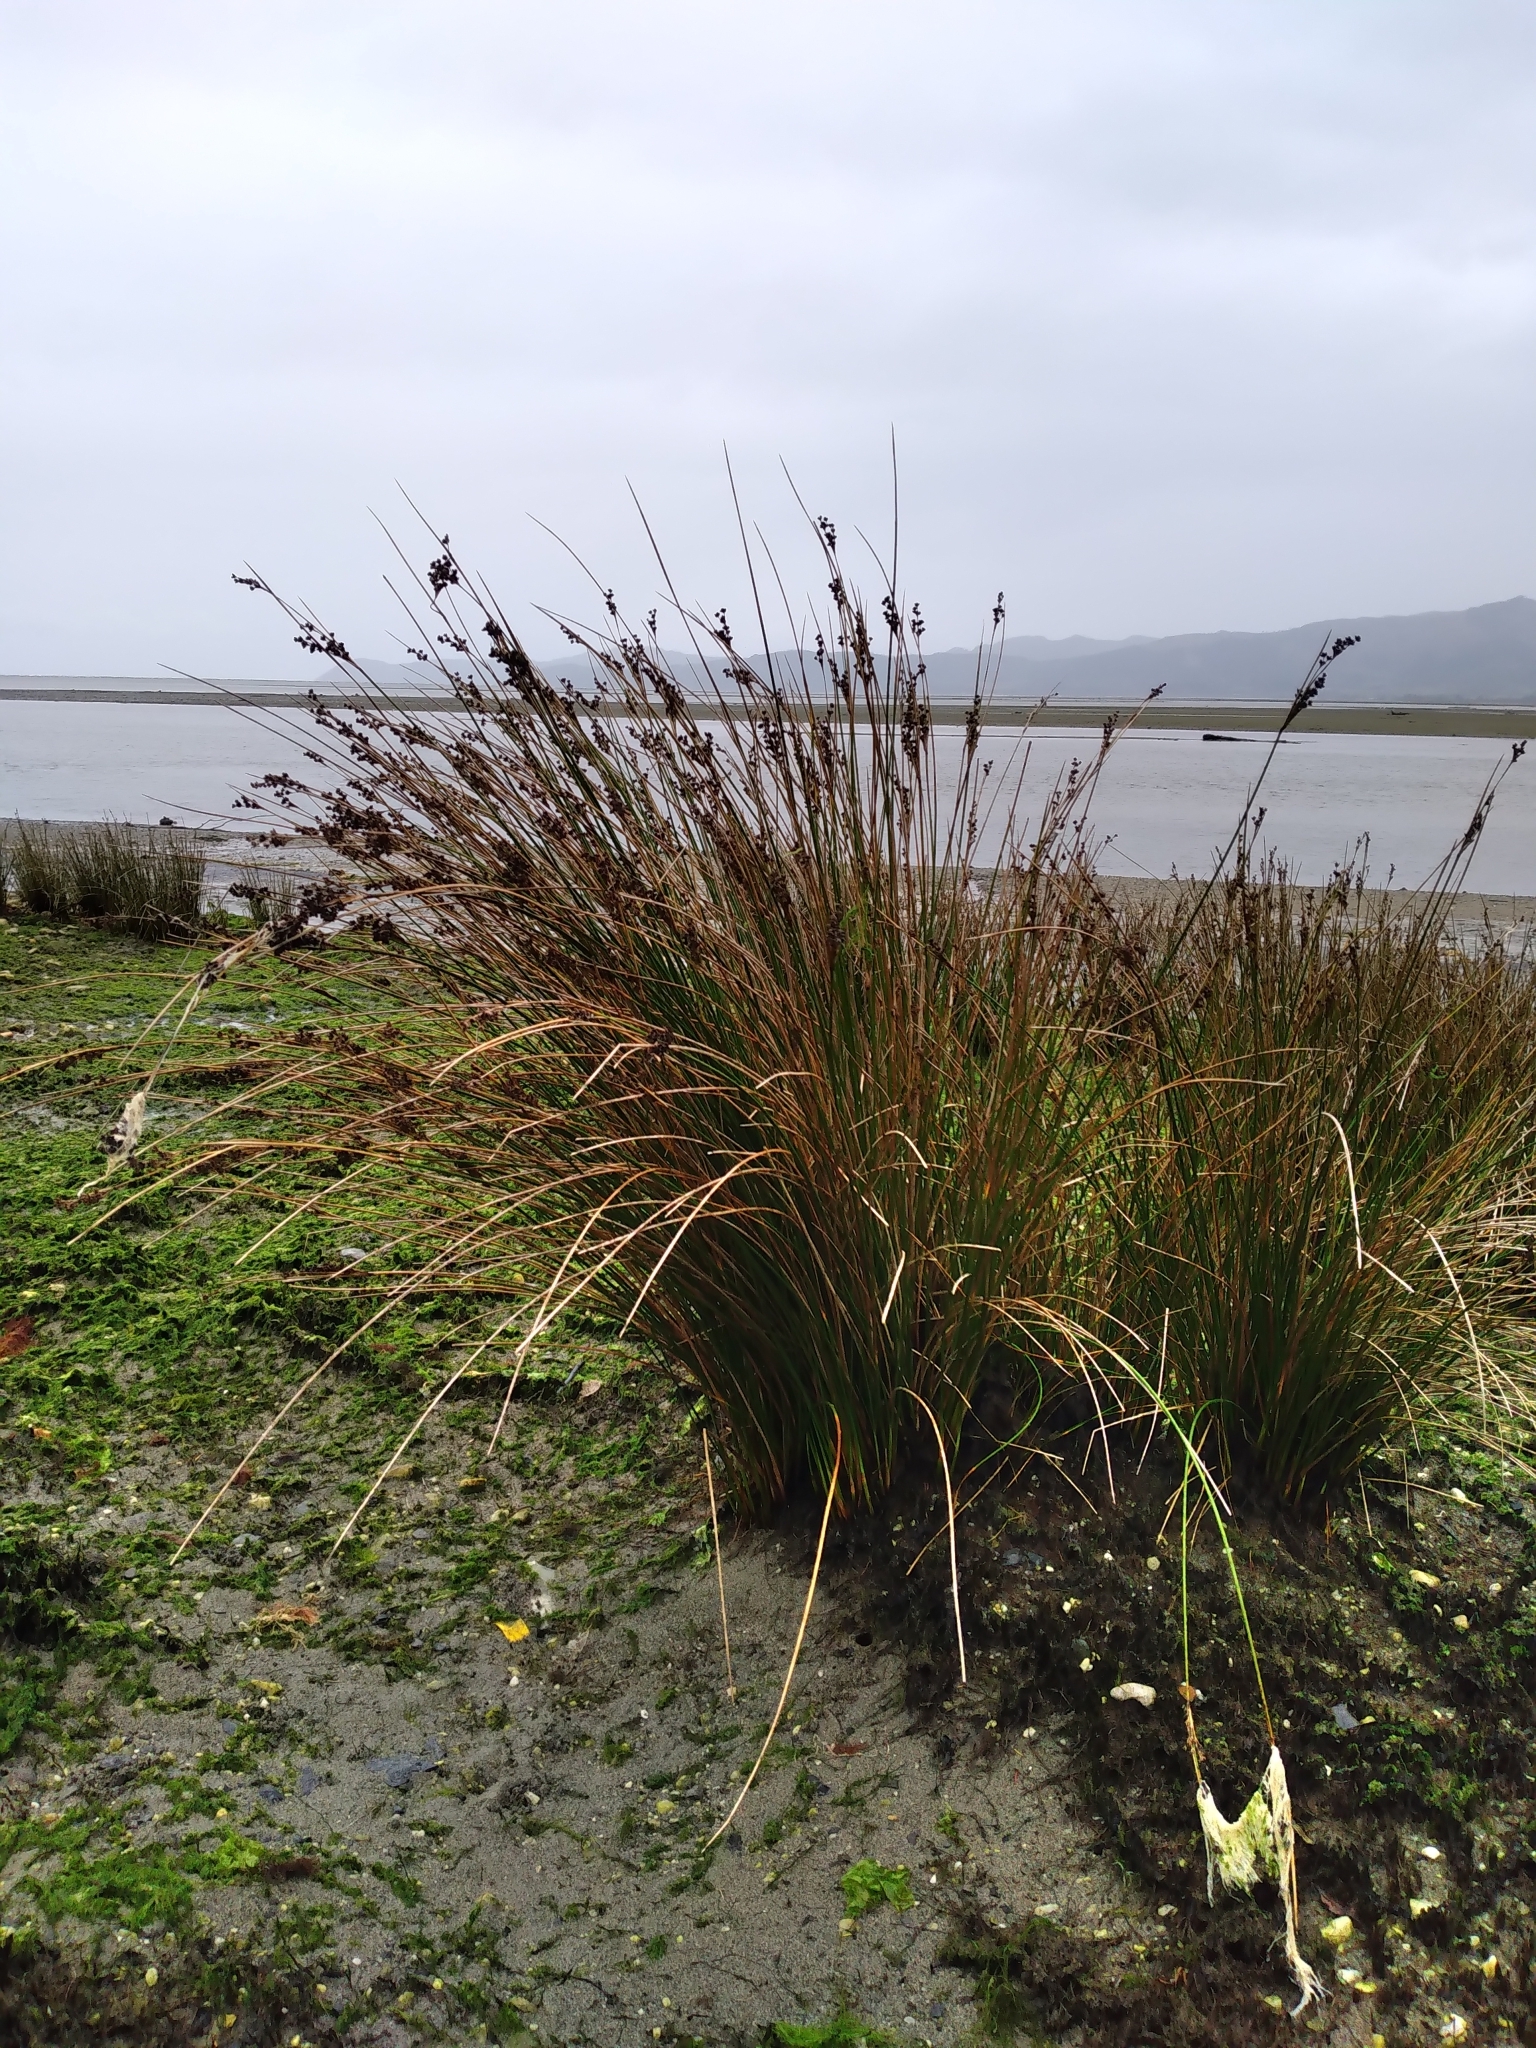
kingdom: Plantae
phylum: Tracheophyta
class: Liliopsida
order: Poales
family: Juncaceae
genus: Juncus
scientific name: Juncus kraussii
